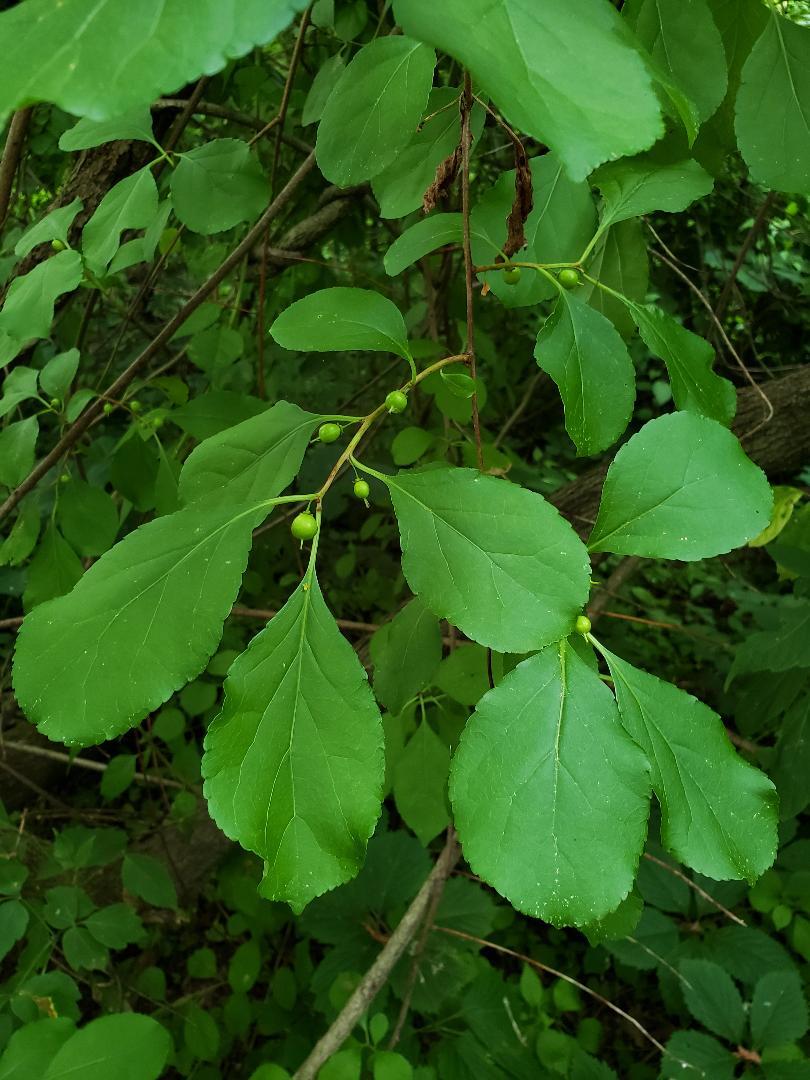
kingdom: Plantae
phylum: Tracheophyta
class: Magnoliopsida
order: Celastrales
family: Celastraceae
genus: Celastrus
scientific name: Celastrus orbiculatus
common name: Oriental bittersweet
